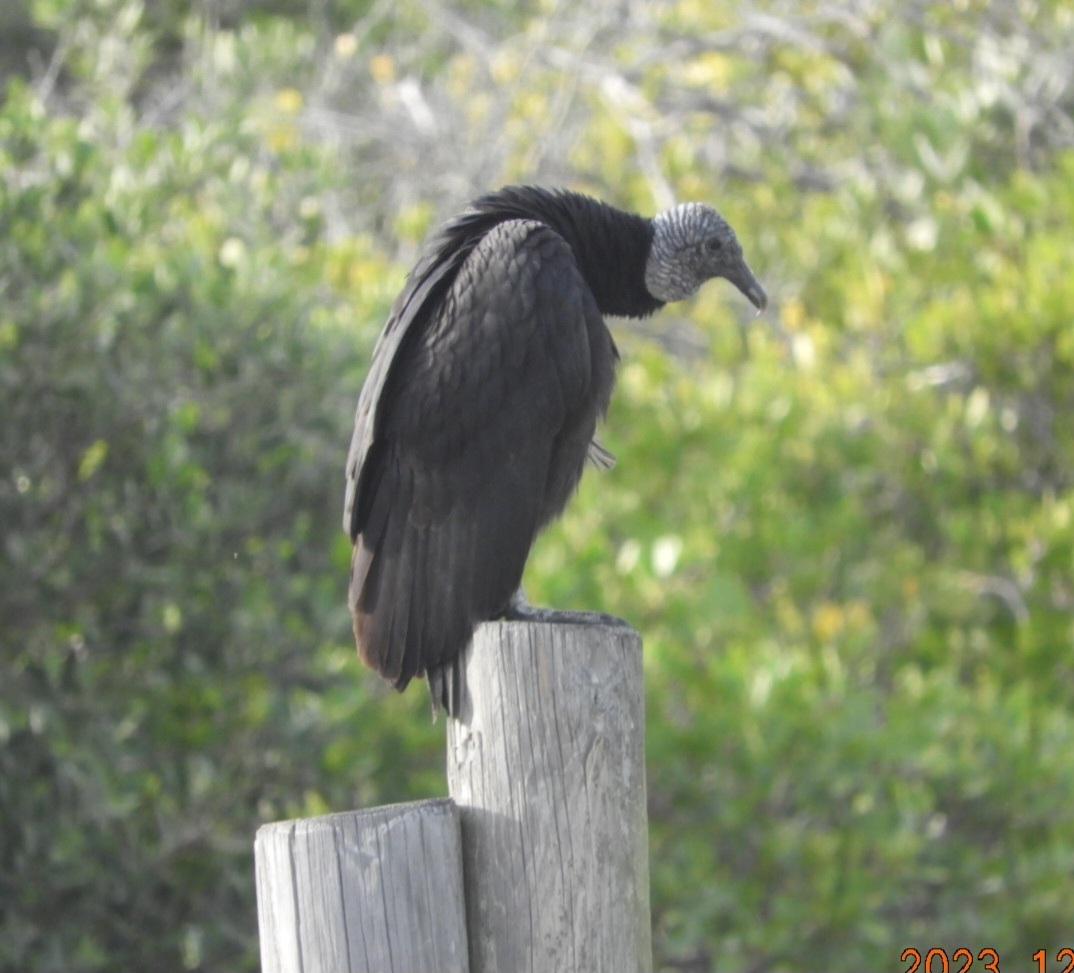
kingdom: Animalia
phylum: Chordata
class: Aves
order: Accipitriformes
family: Cathartidae
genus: Coragyps
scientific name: Coragyps atratus
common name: Black vulture
